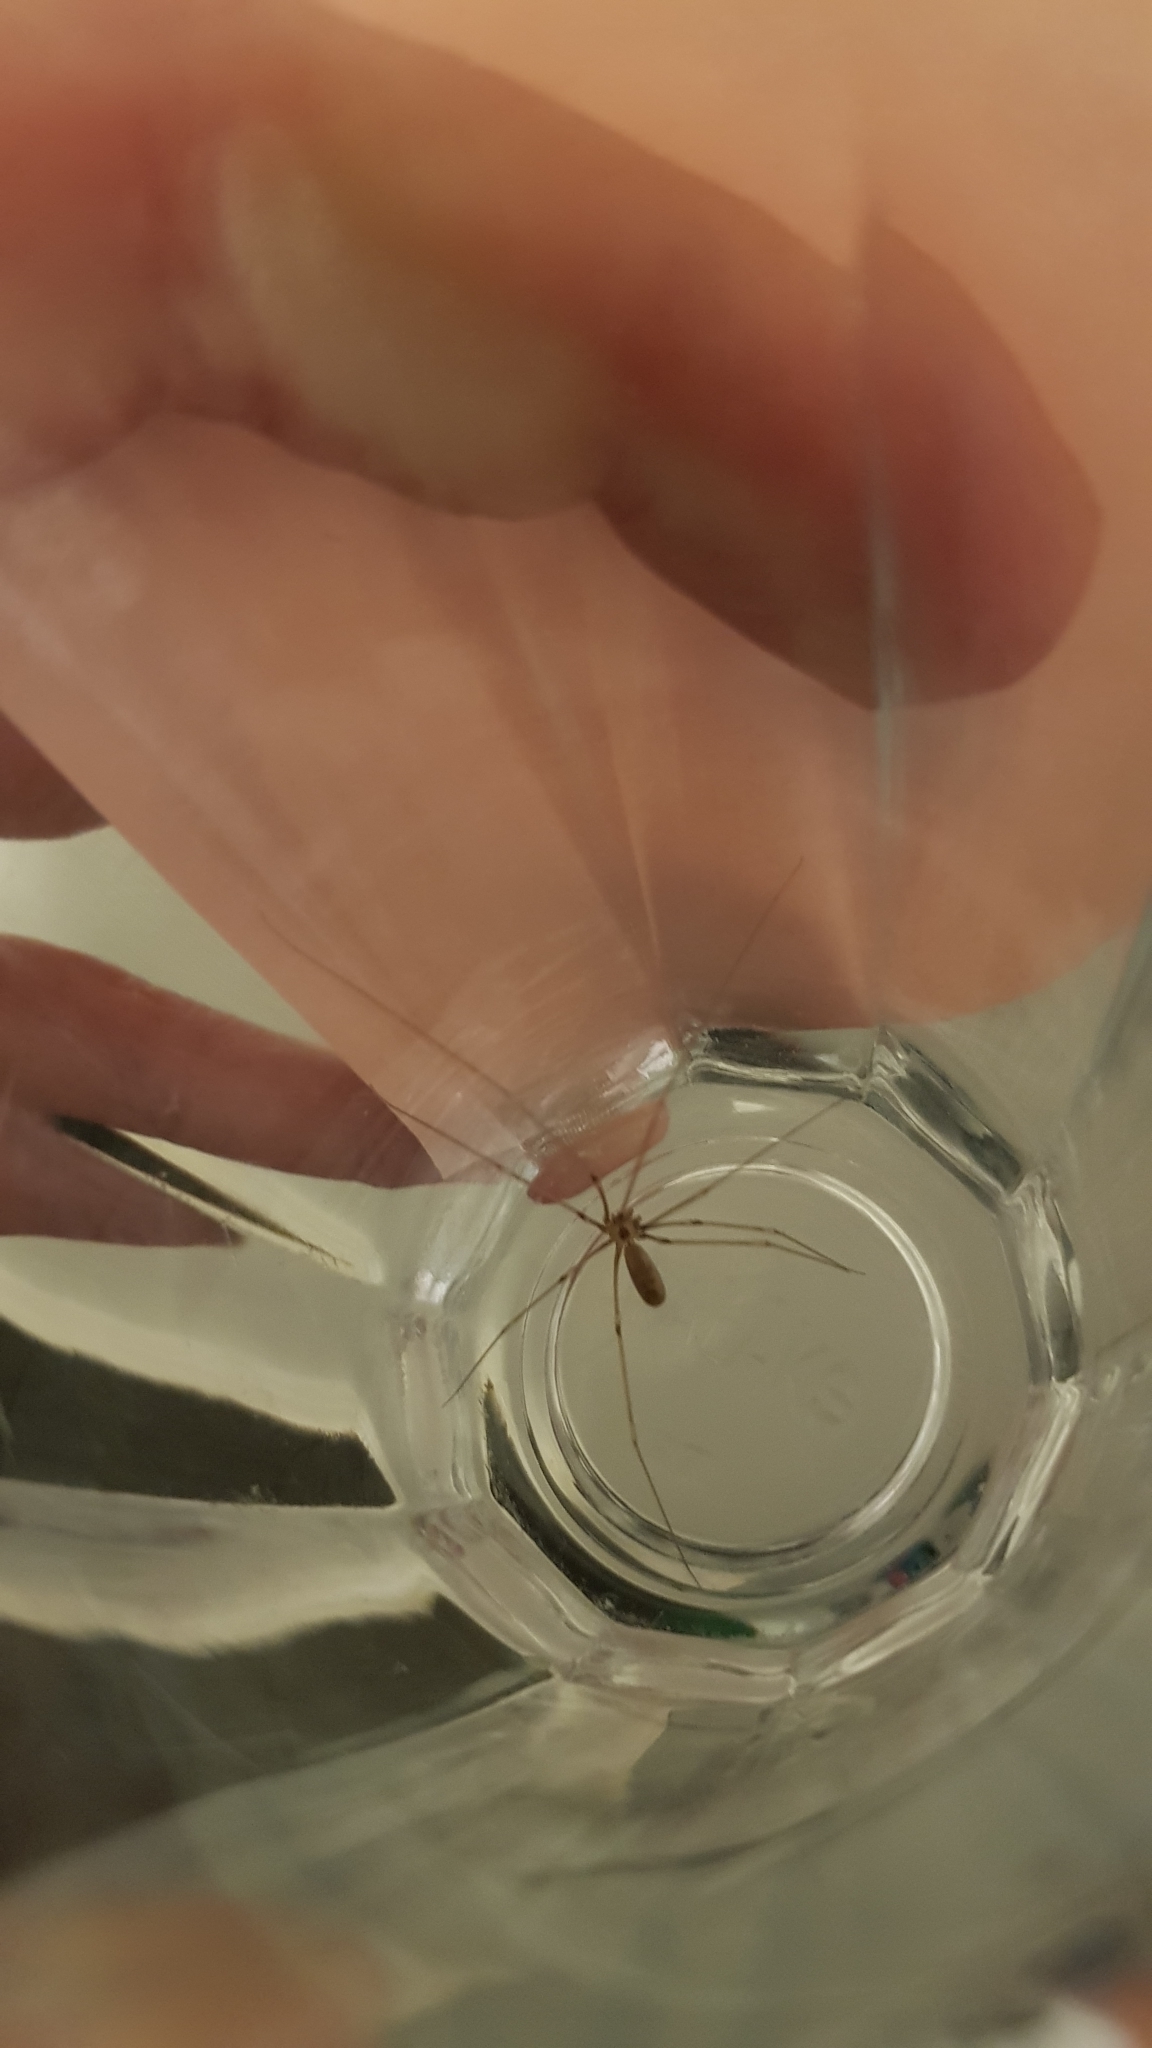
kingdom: Animalia
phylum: Arthropoda
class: Arachnida
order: Araneae
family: Pholcidae
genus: Pholcus
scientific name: Pholcus phalangioides
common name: Longbodied cellar spider
